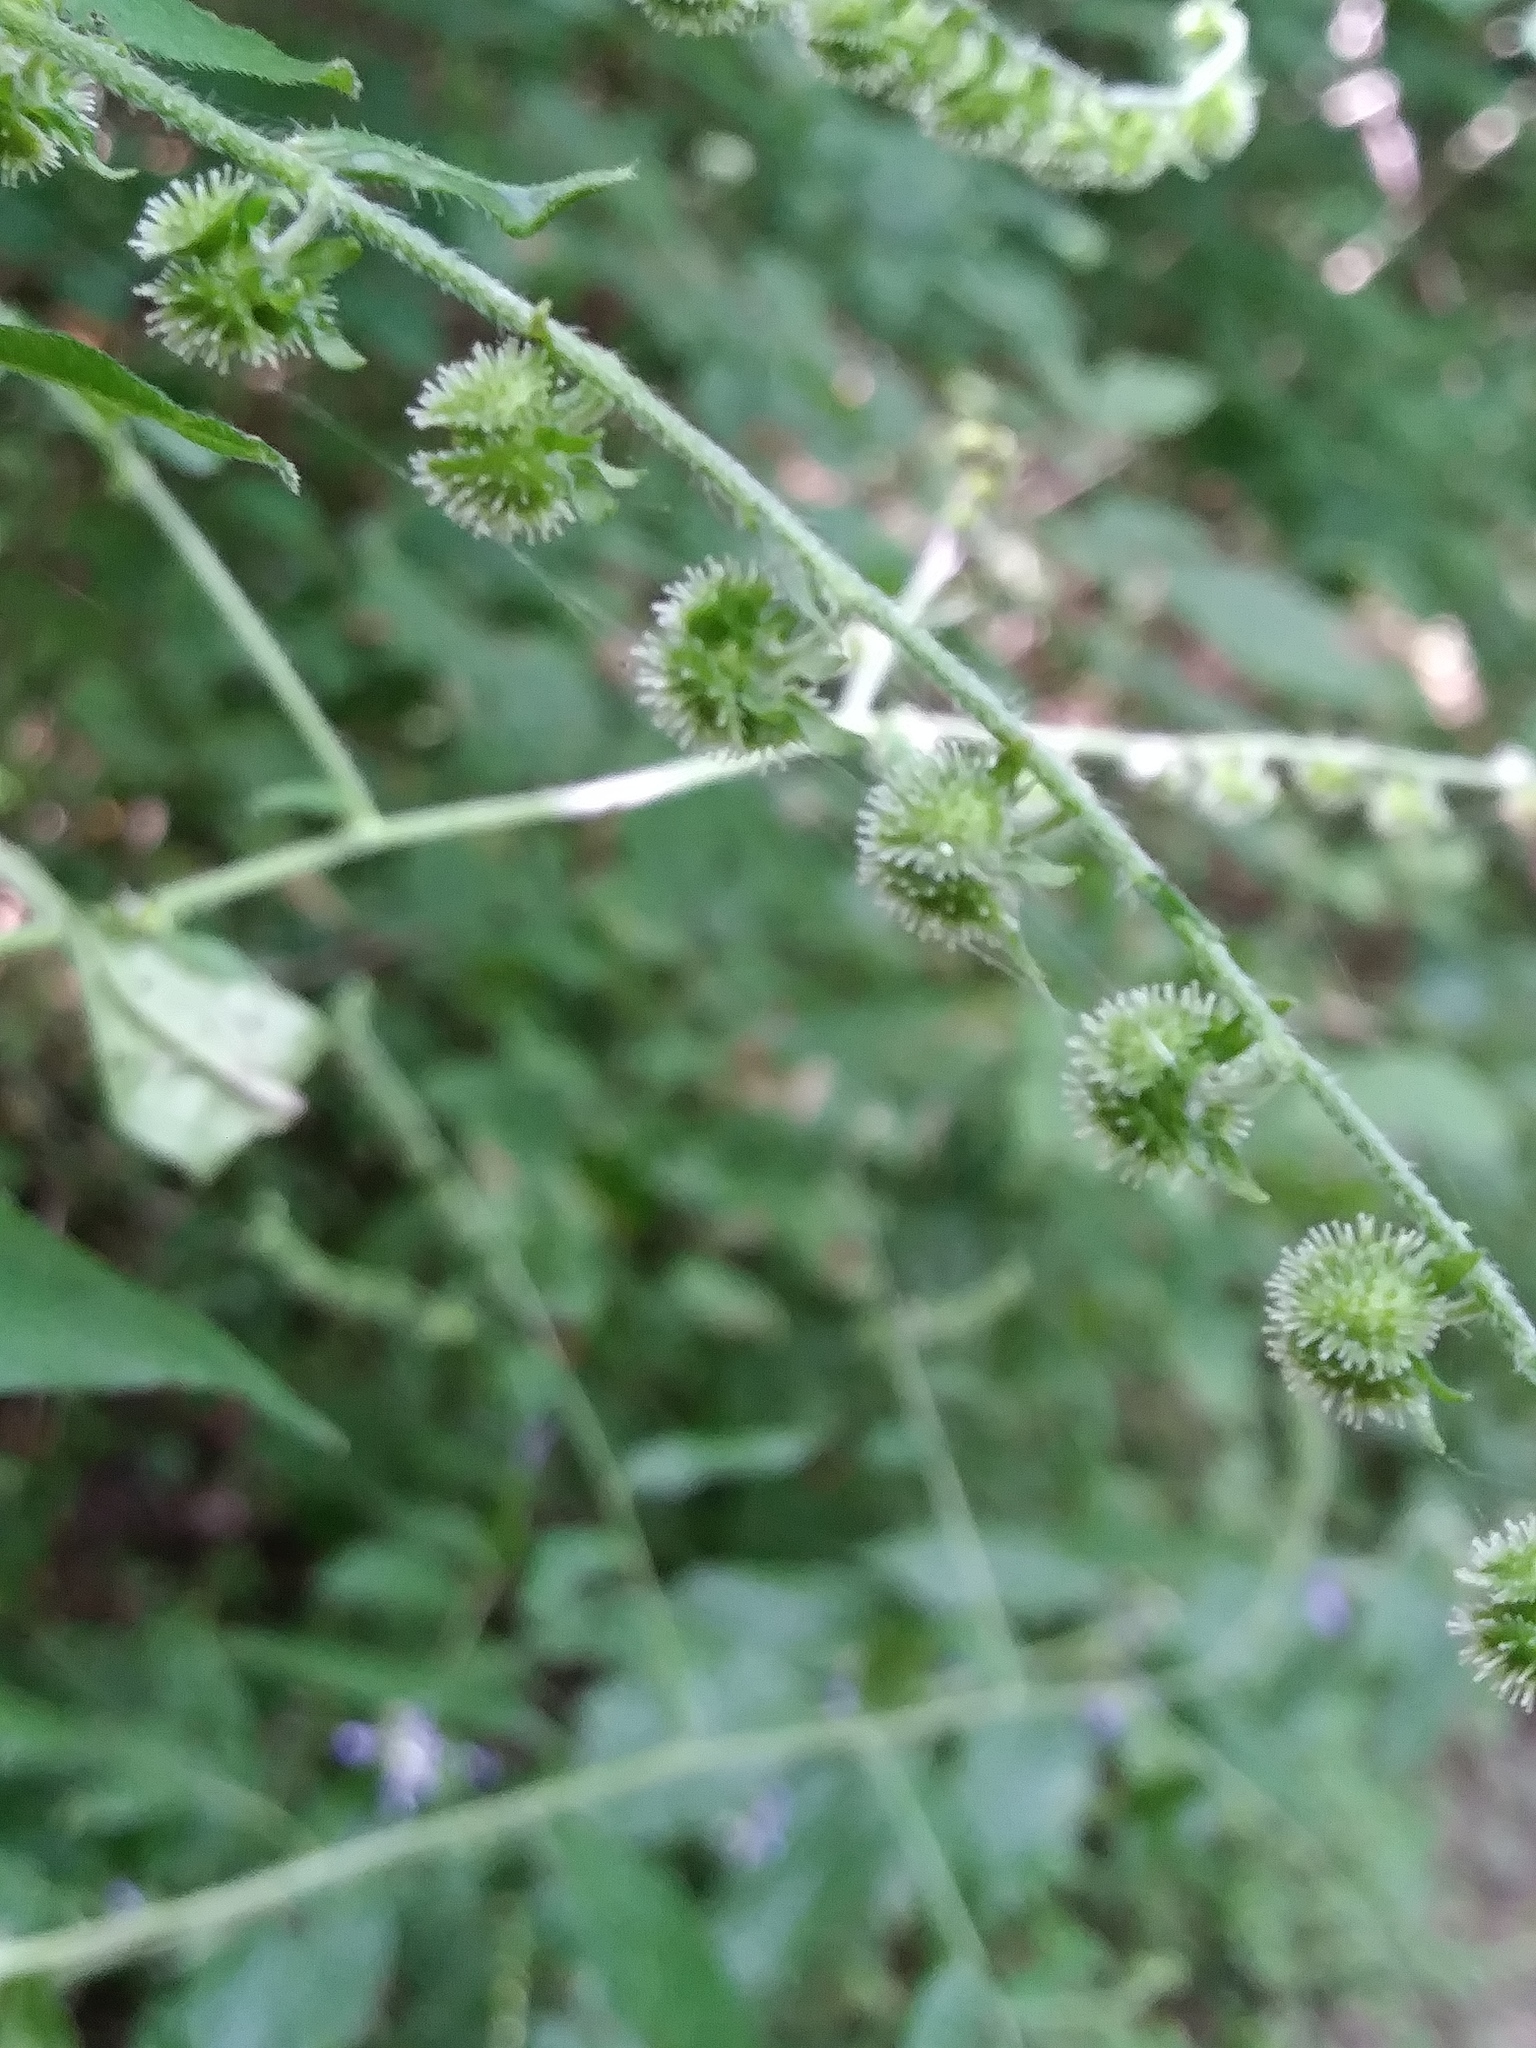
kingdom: Plantae
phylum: Tracheophyta
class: Magnoliopsida
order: Boraginales
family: Boraginaceae
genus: Hackelia
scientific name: Hackelia virginiana
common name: Beggar's-lice
